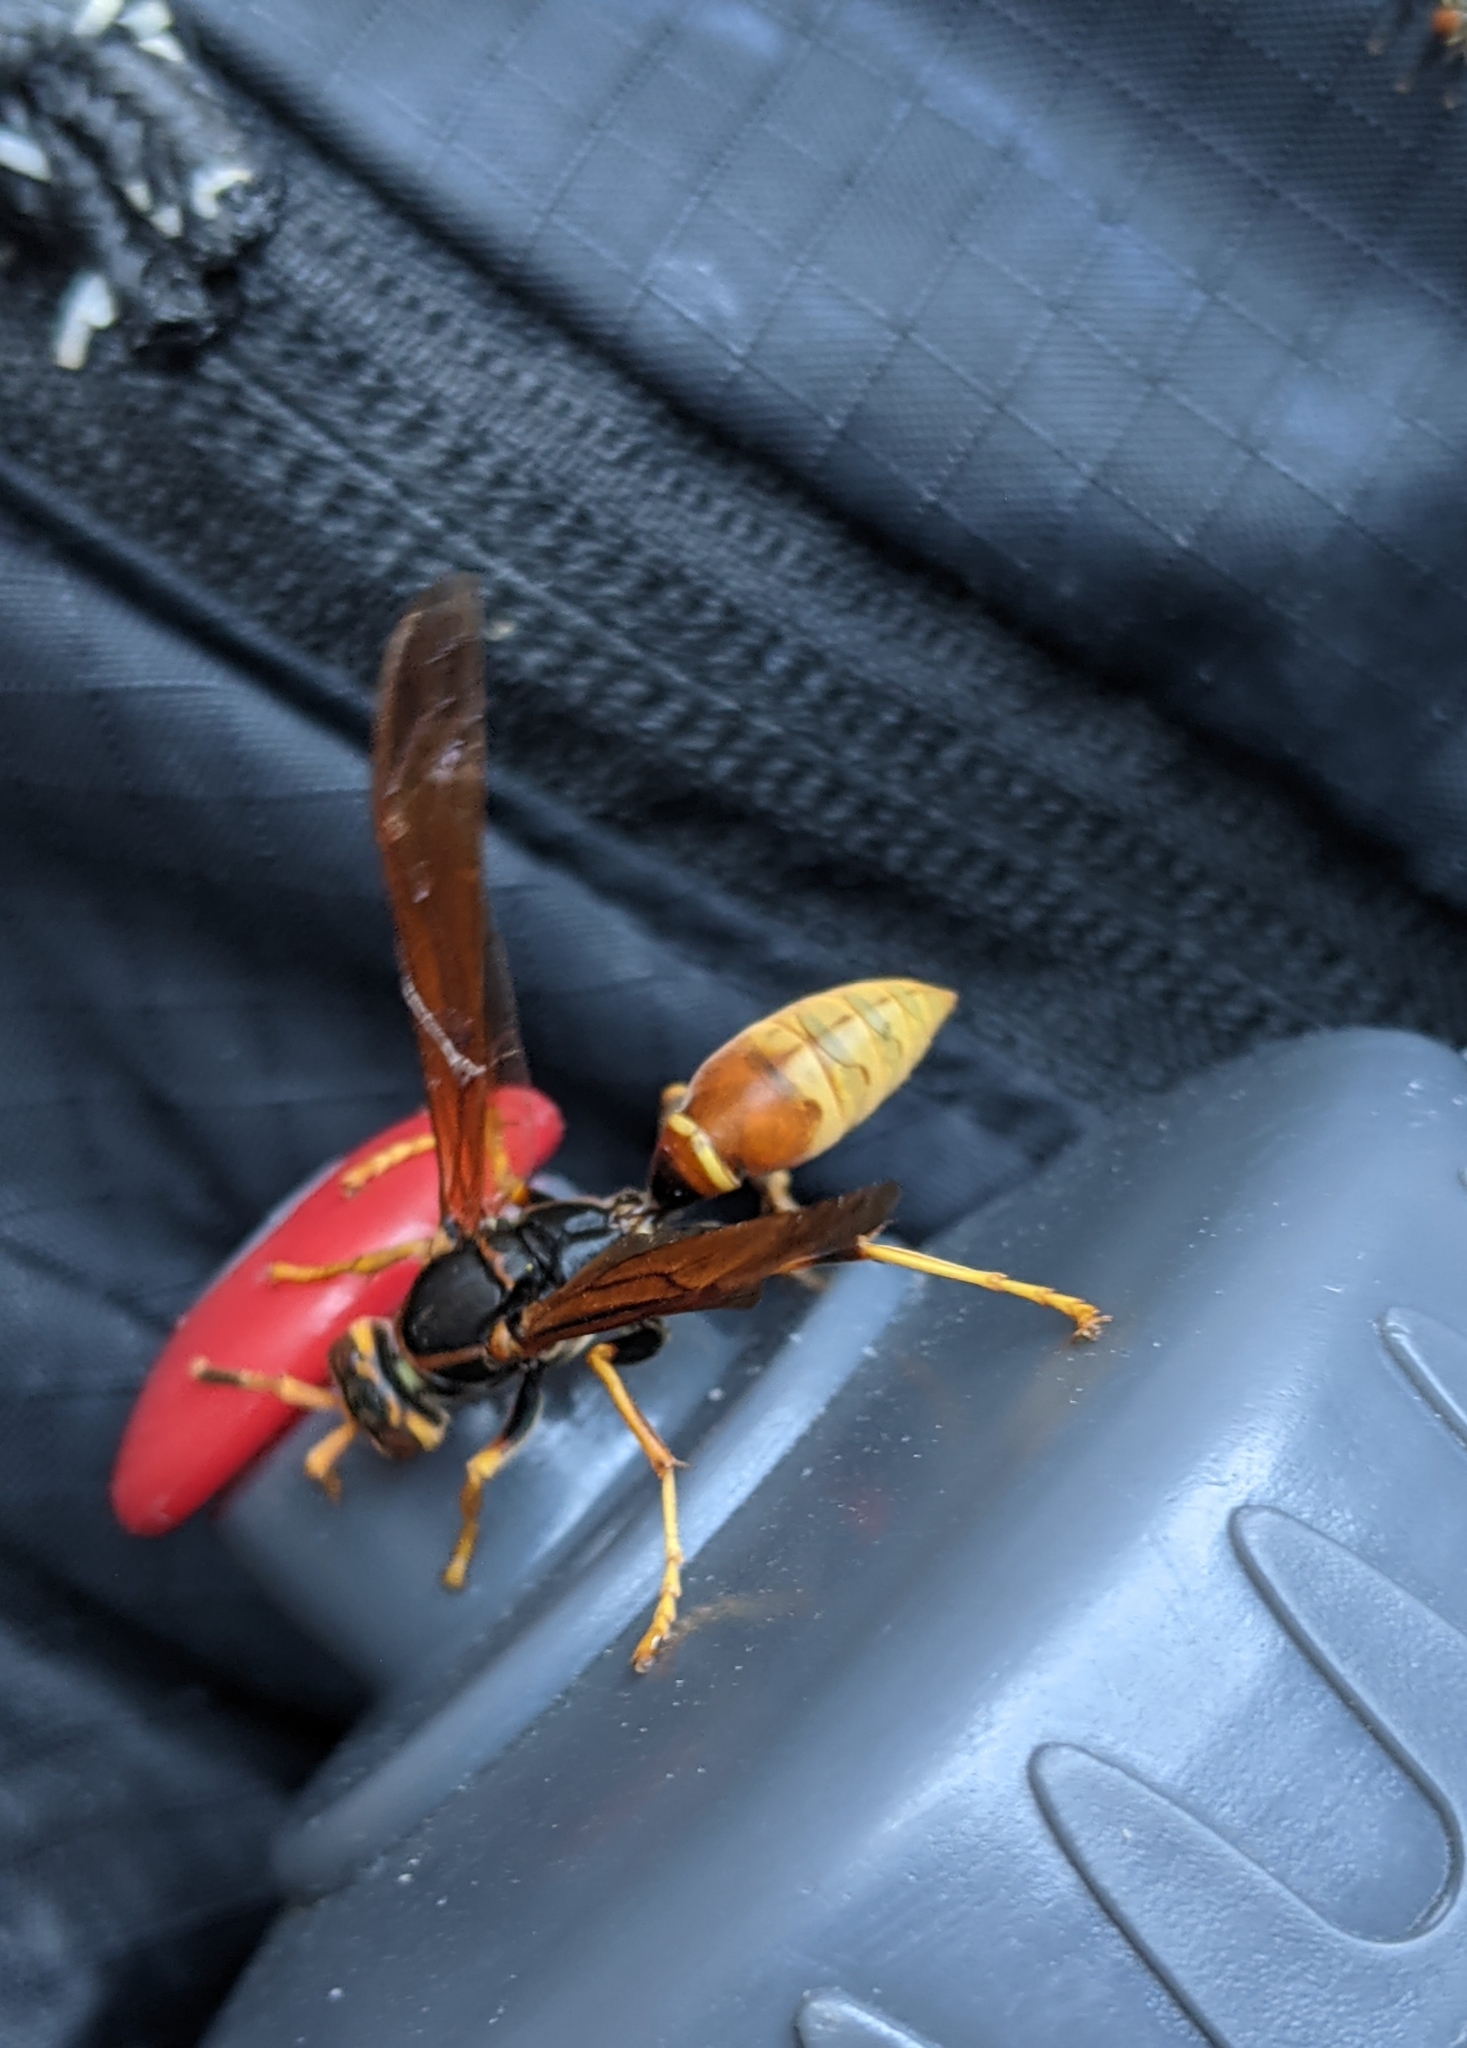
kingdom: Animalia
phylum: Arthropoda
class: Insecta
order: Hymenoptera
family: Eumenidae
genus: Polistes
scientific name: Polistes comanchus
